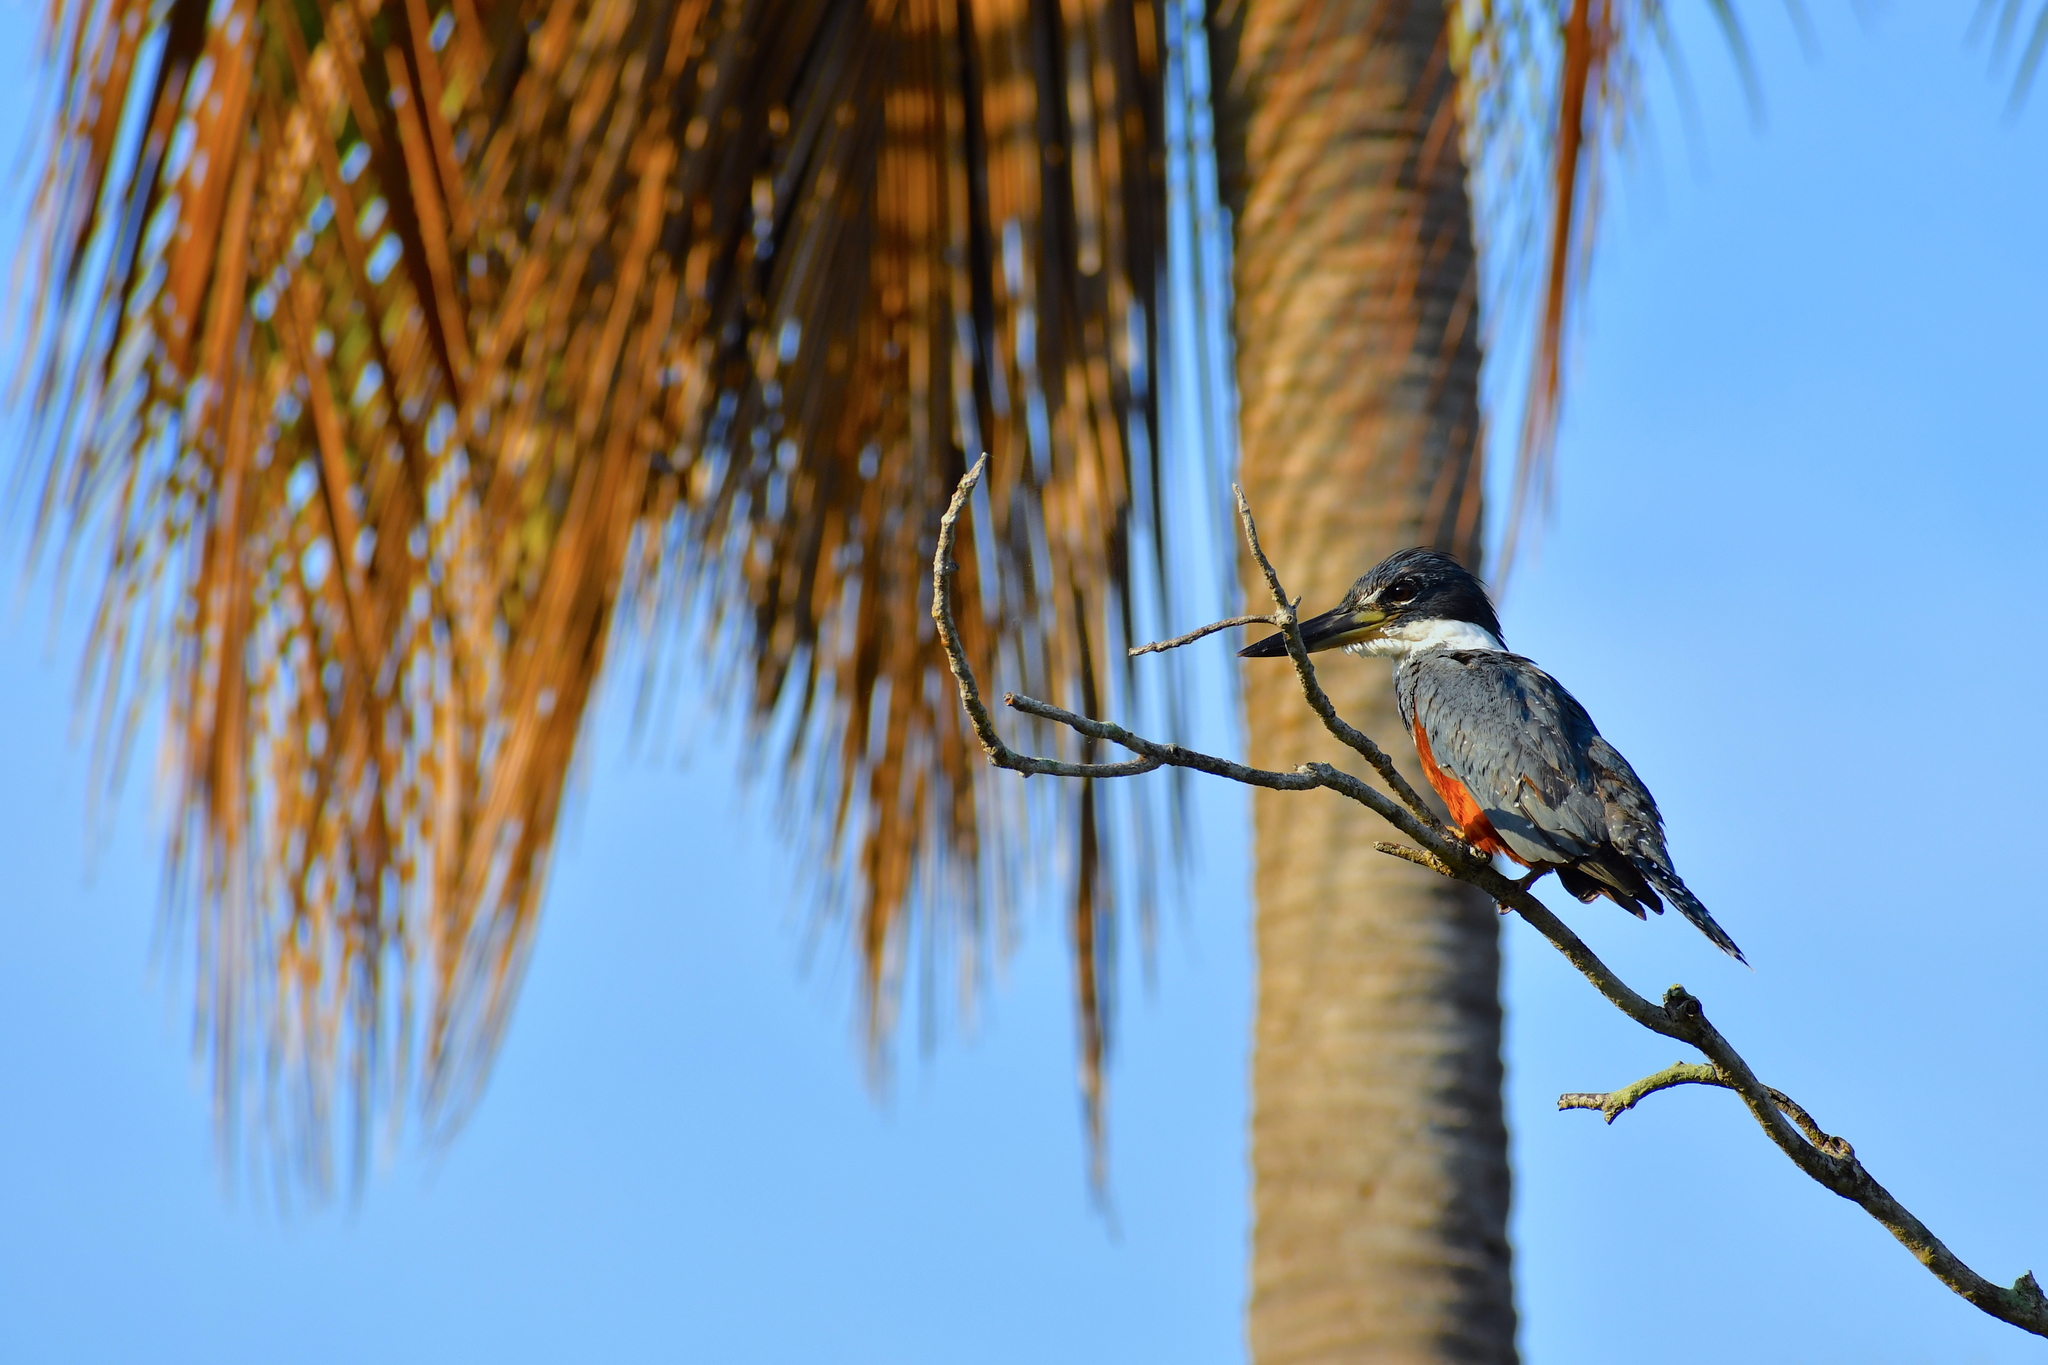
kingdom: Animalia
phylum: Chordata
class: Aves
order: Coraciiformes
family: Alcedinidae
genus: Megaceryle
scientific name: Megaceryle torquata
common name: Ringed kingfisher
